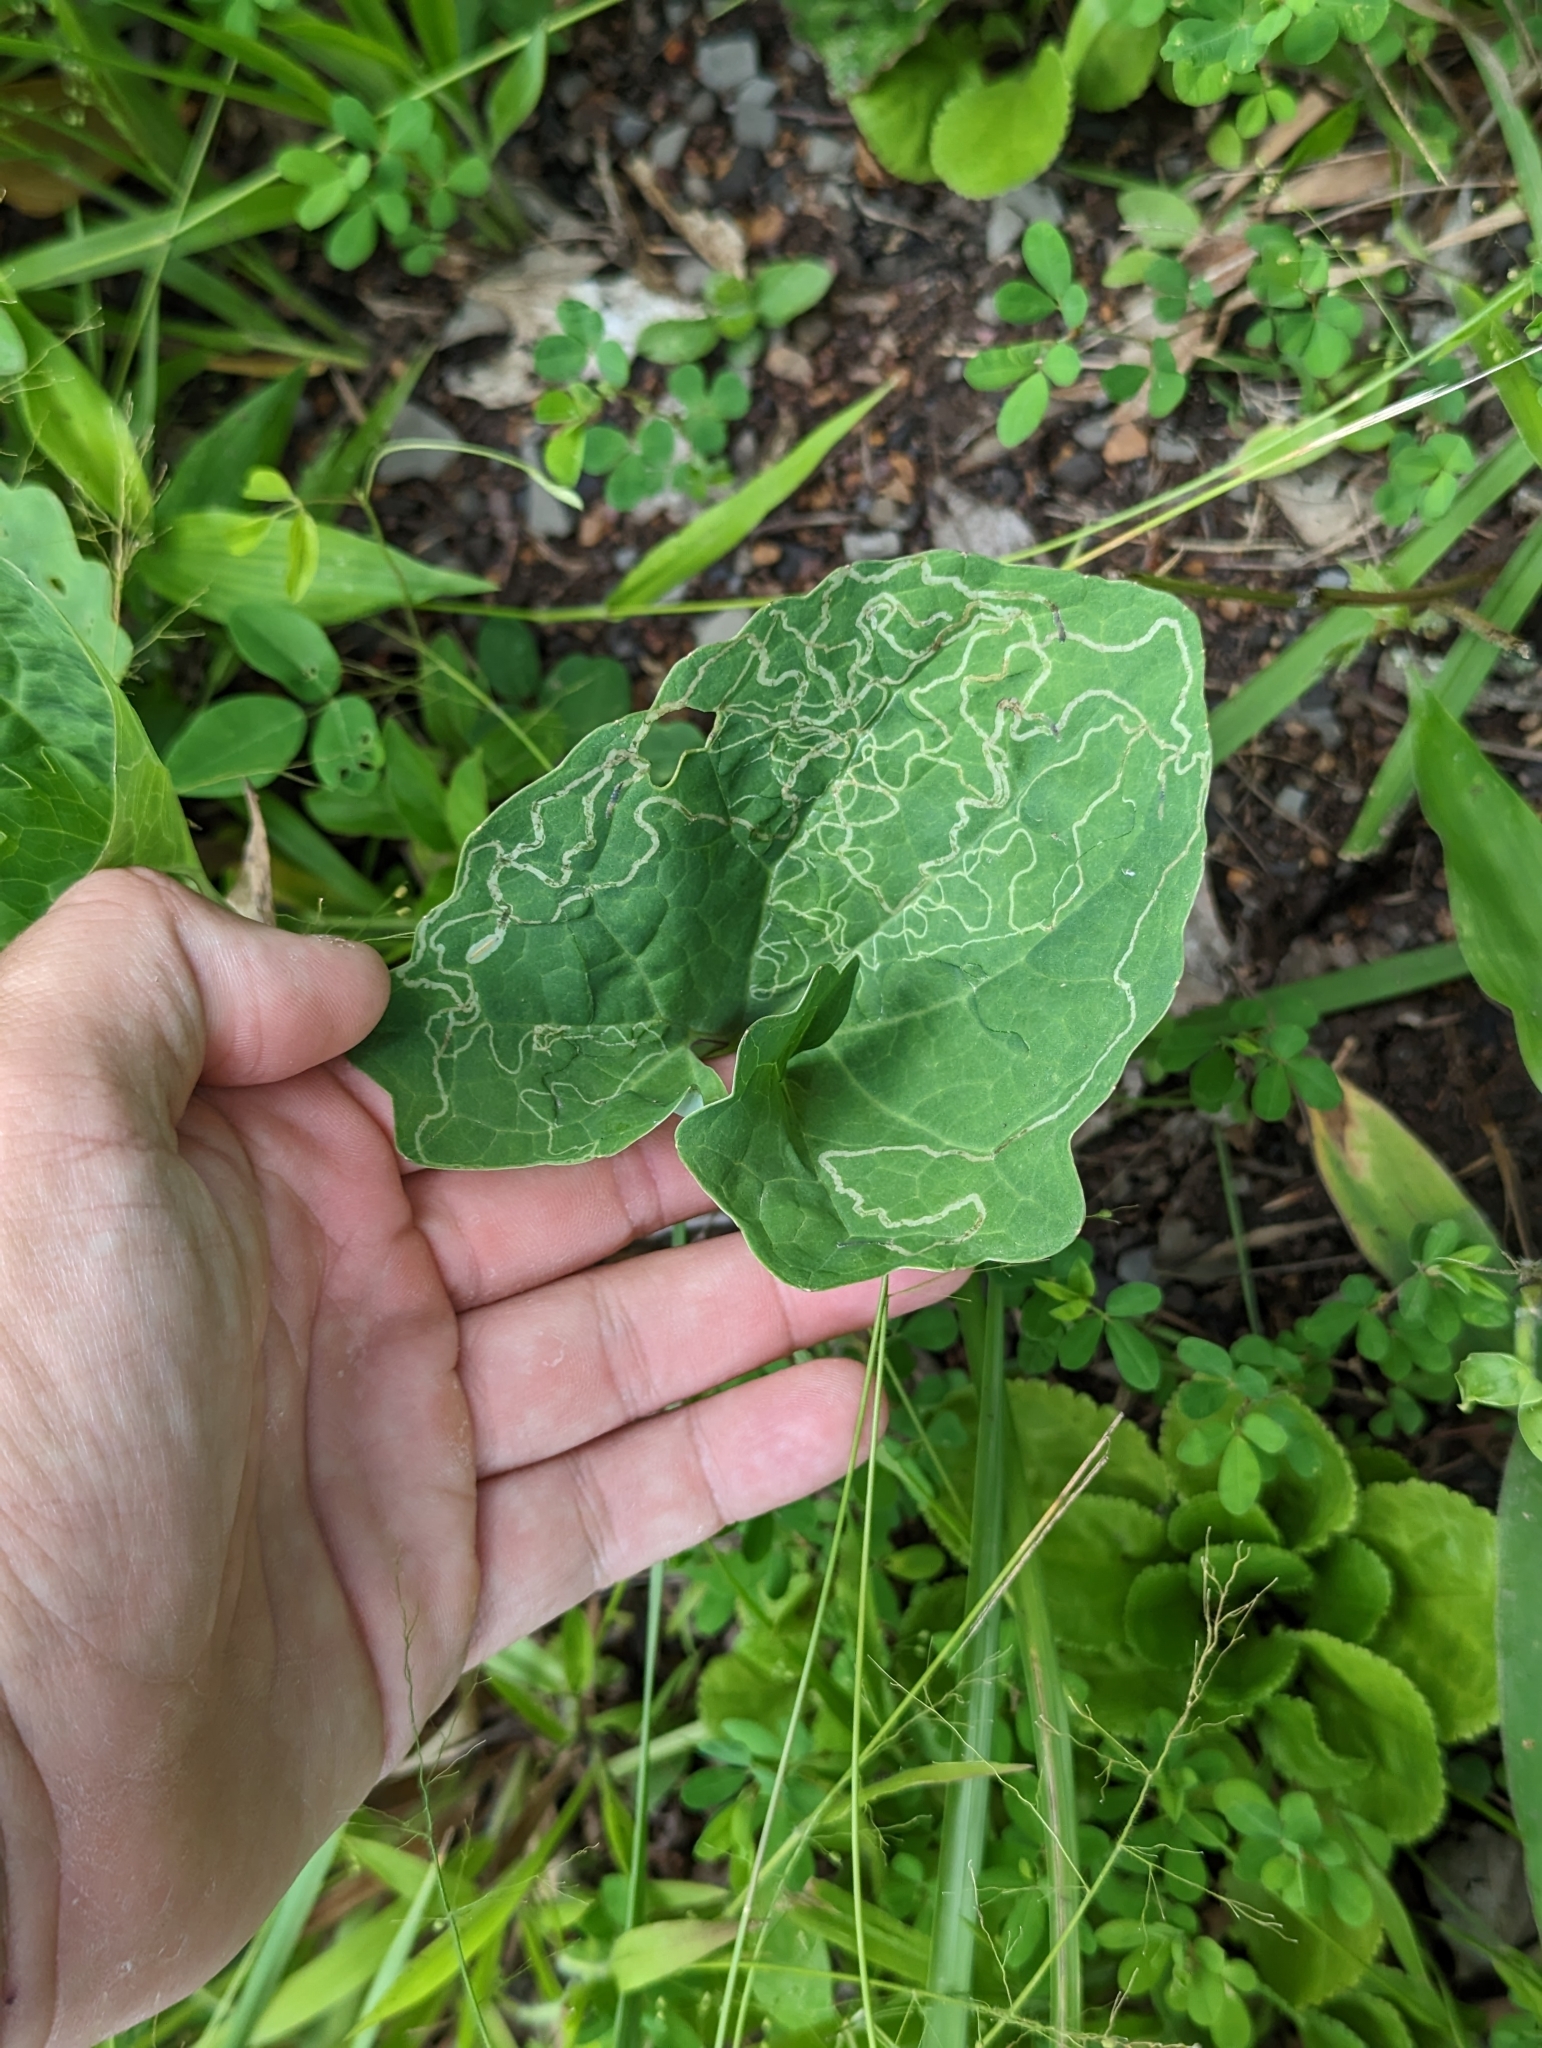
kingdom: Animalia
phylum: Arthropoda
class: Insecta
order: Lepidoptera
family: Gracillariidae
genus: Phyllocnistis
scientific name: Phyllocnistis insignis
